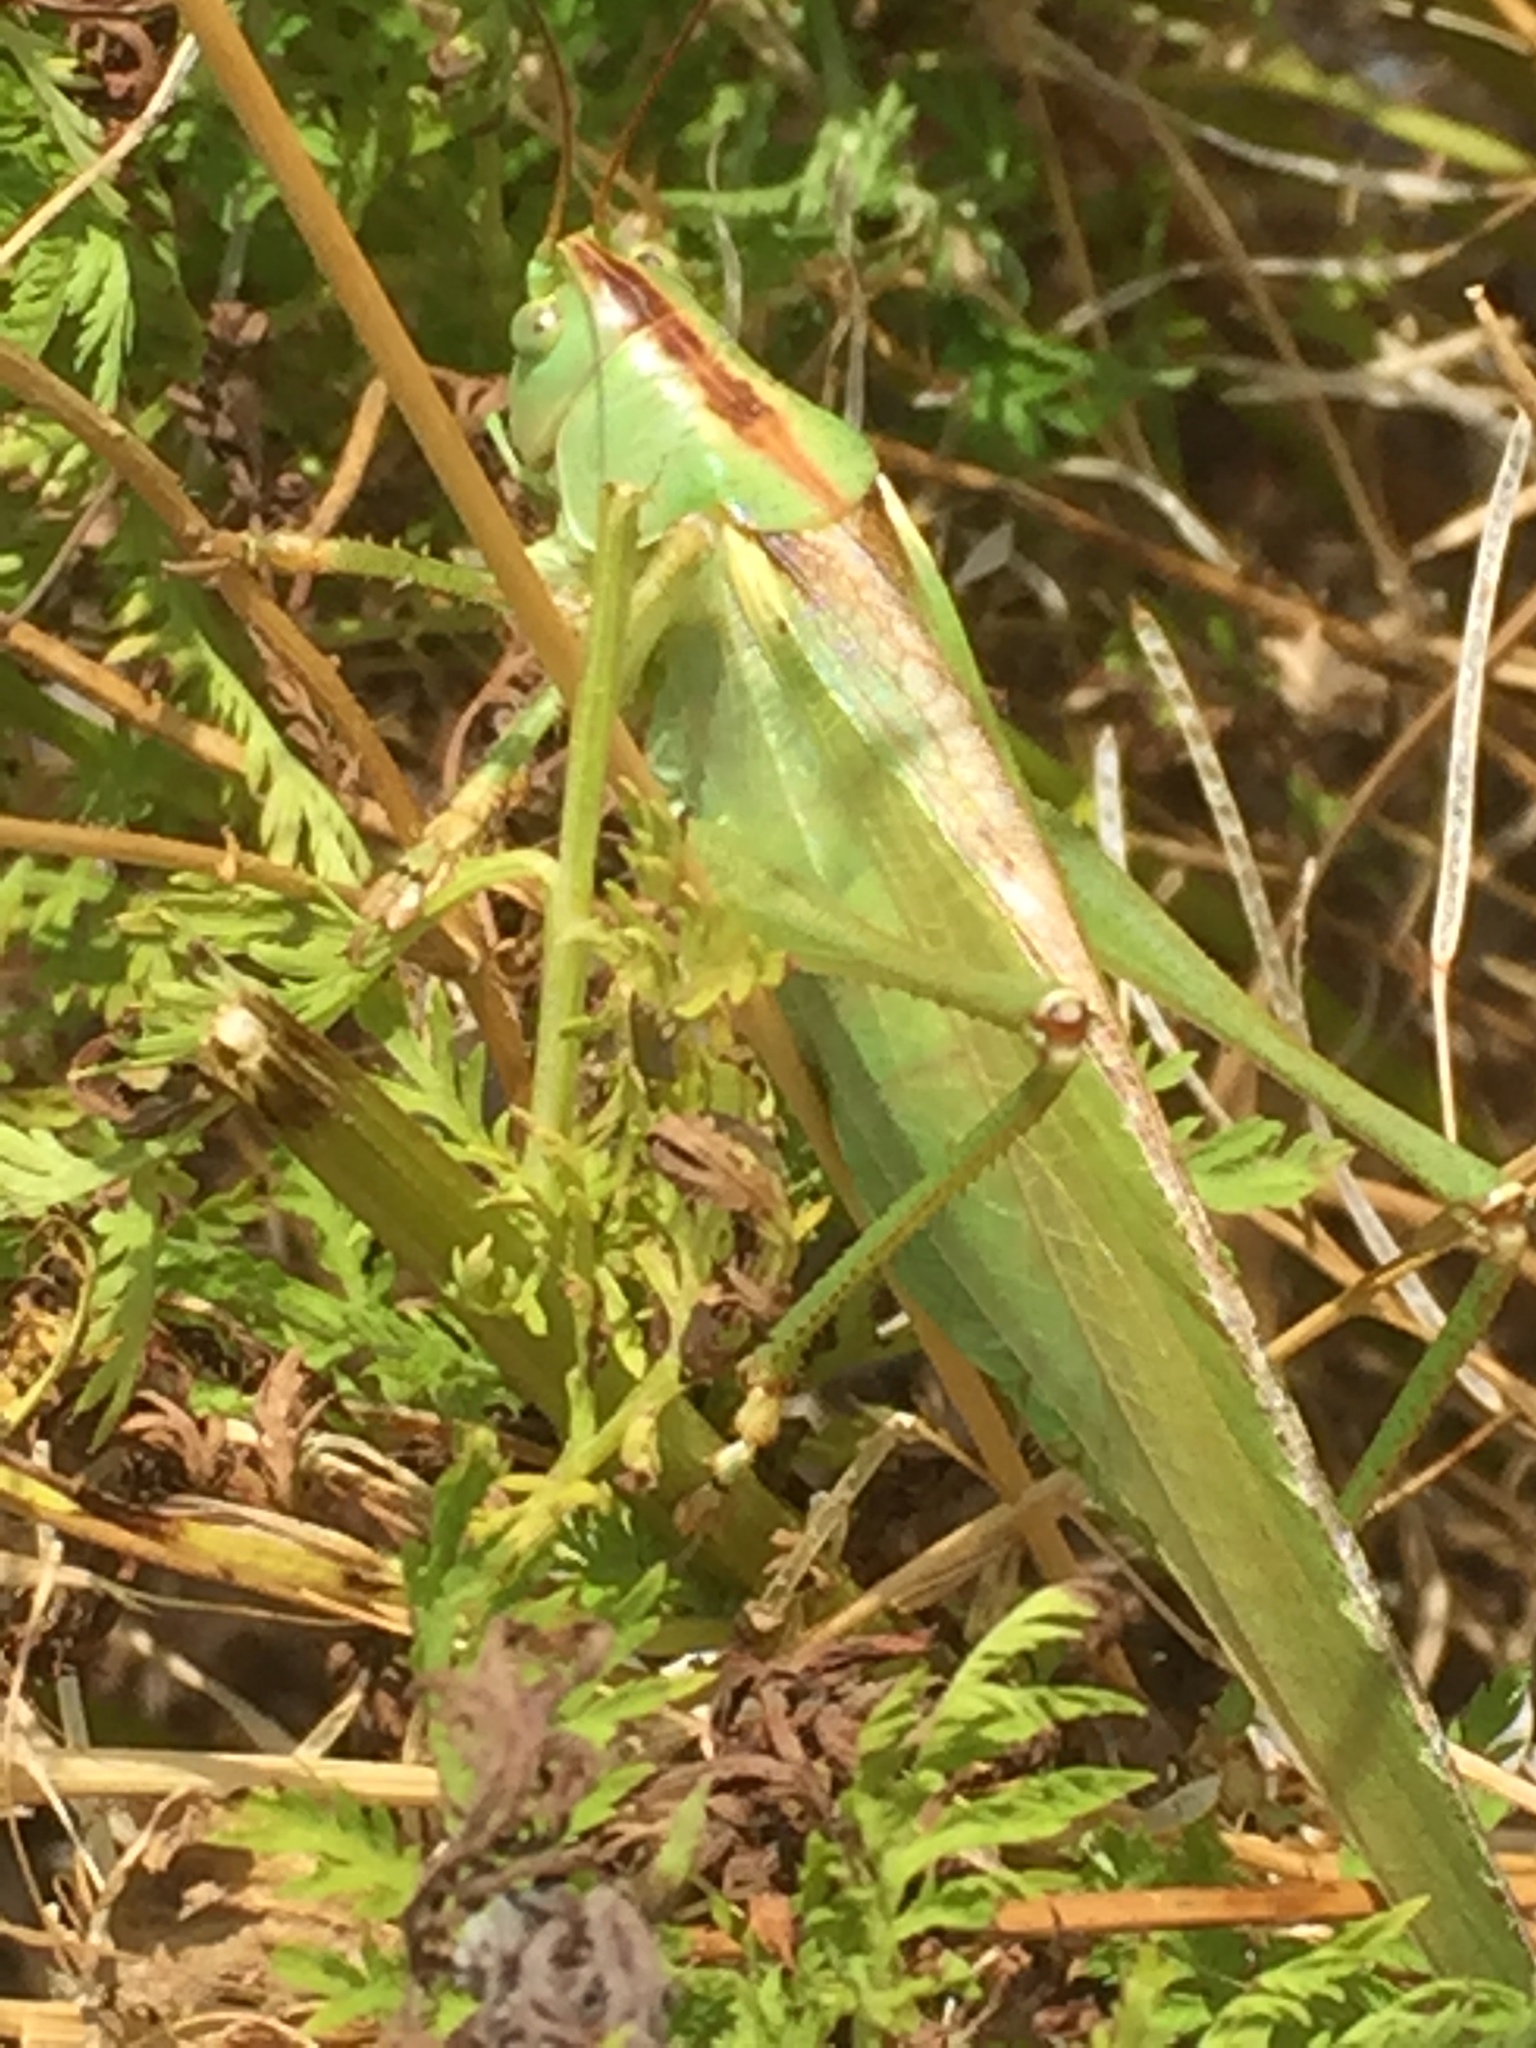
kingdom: Animalia
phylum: Arthropoda
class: Insecta
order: Orthoptera
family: Tettigoniidae
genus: Tettigonia
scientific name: Tettigonia viridissima
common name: Great green bush-cricket
